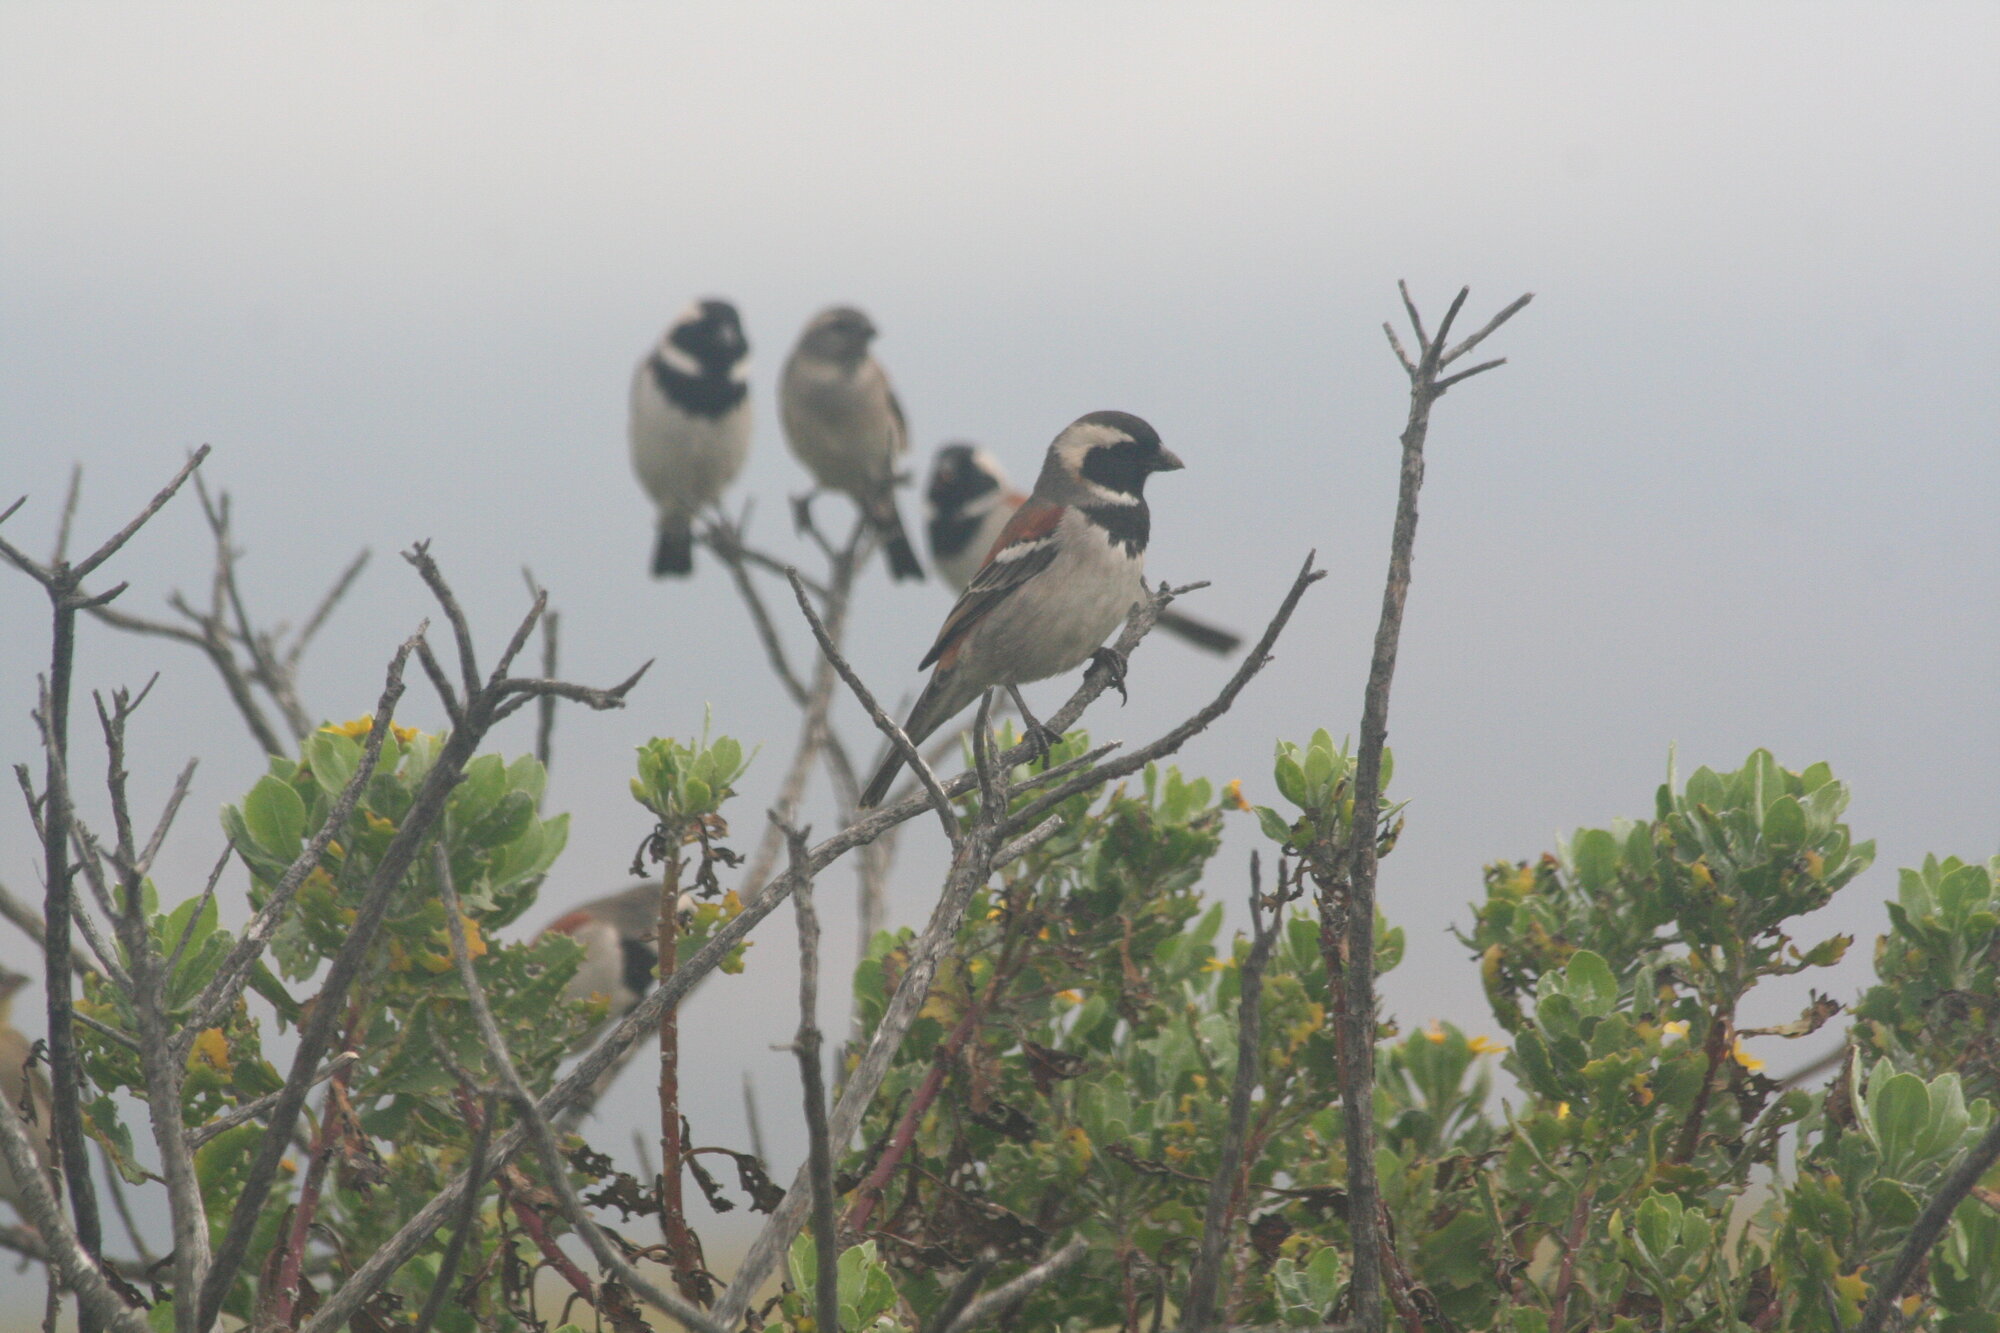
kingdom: Animalia
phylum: Chordata
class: Aves
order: Passeriformes
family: Passeridae
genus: Passer
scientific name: Passer melanurus
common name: Cape sparrow
